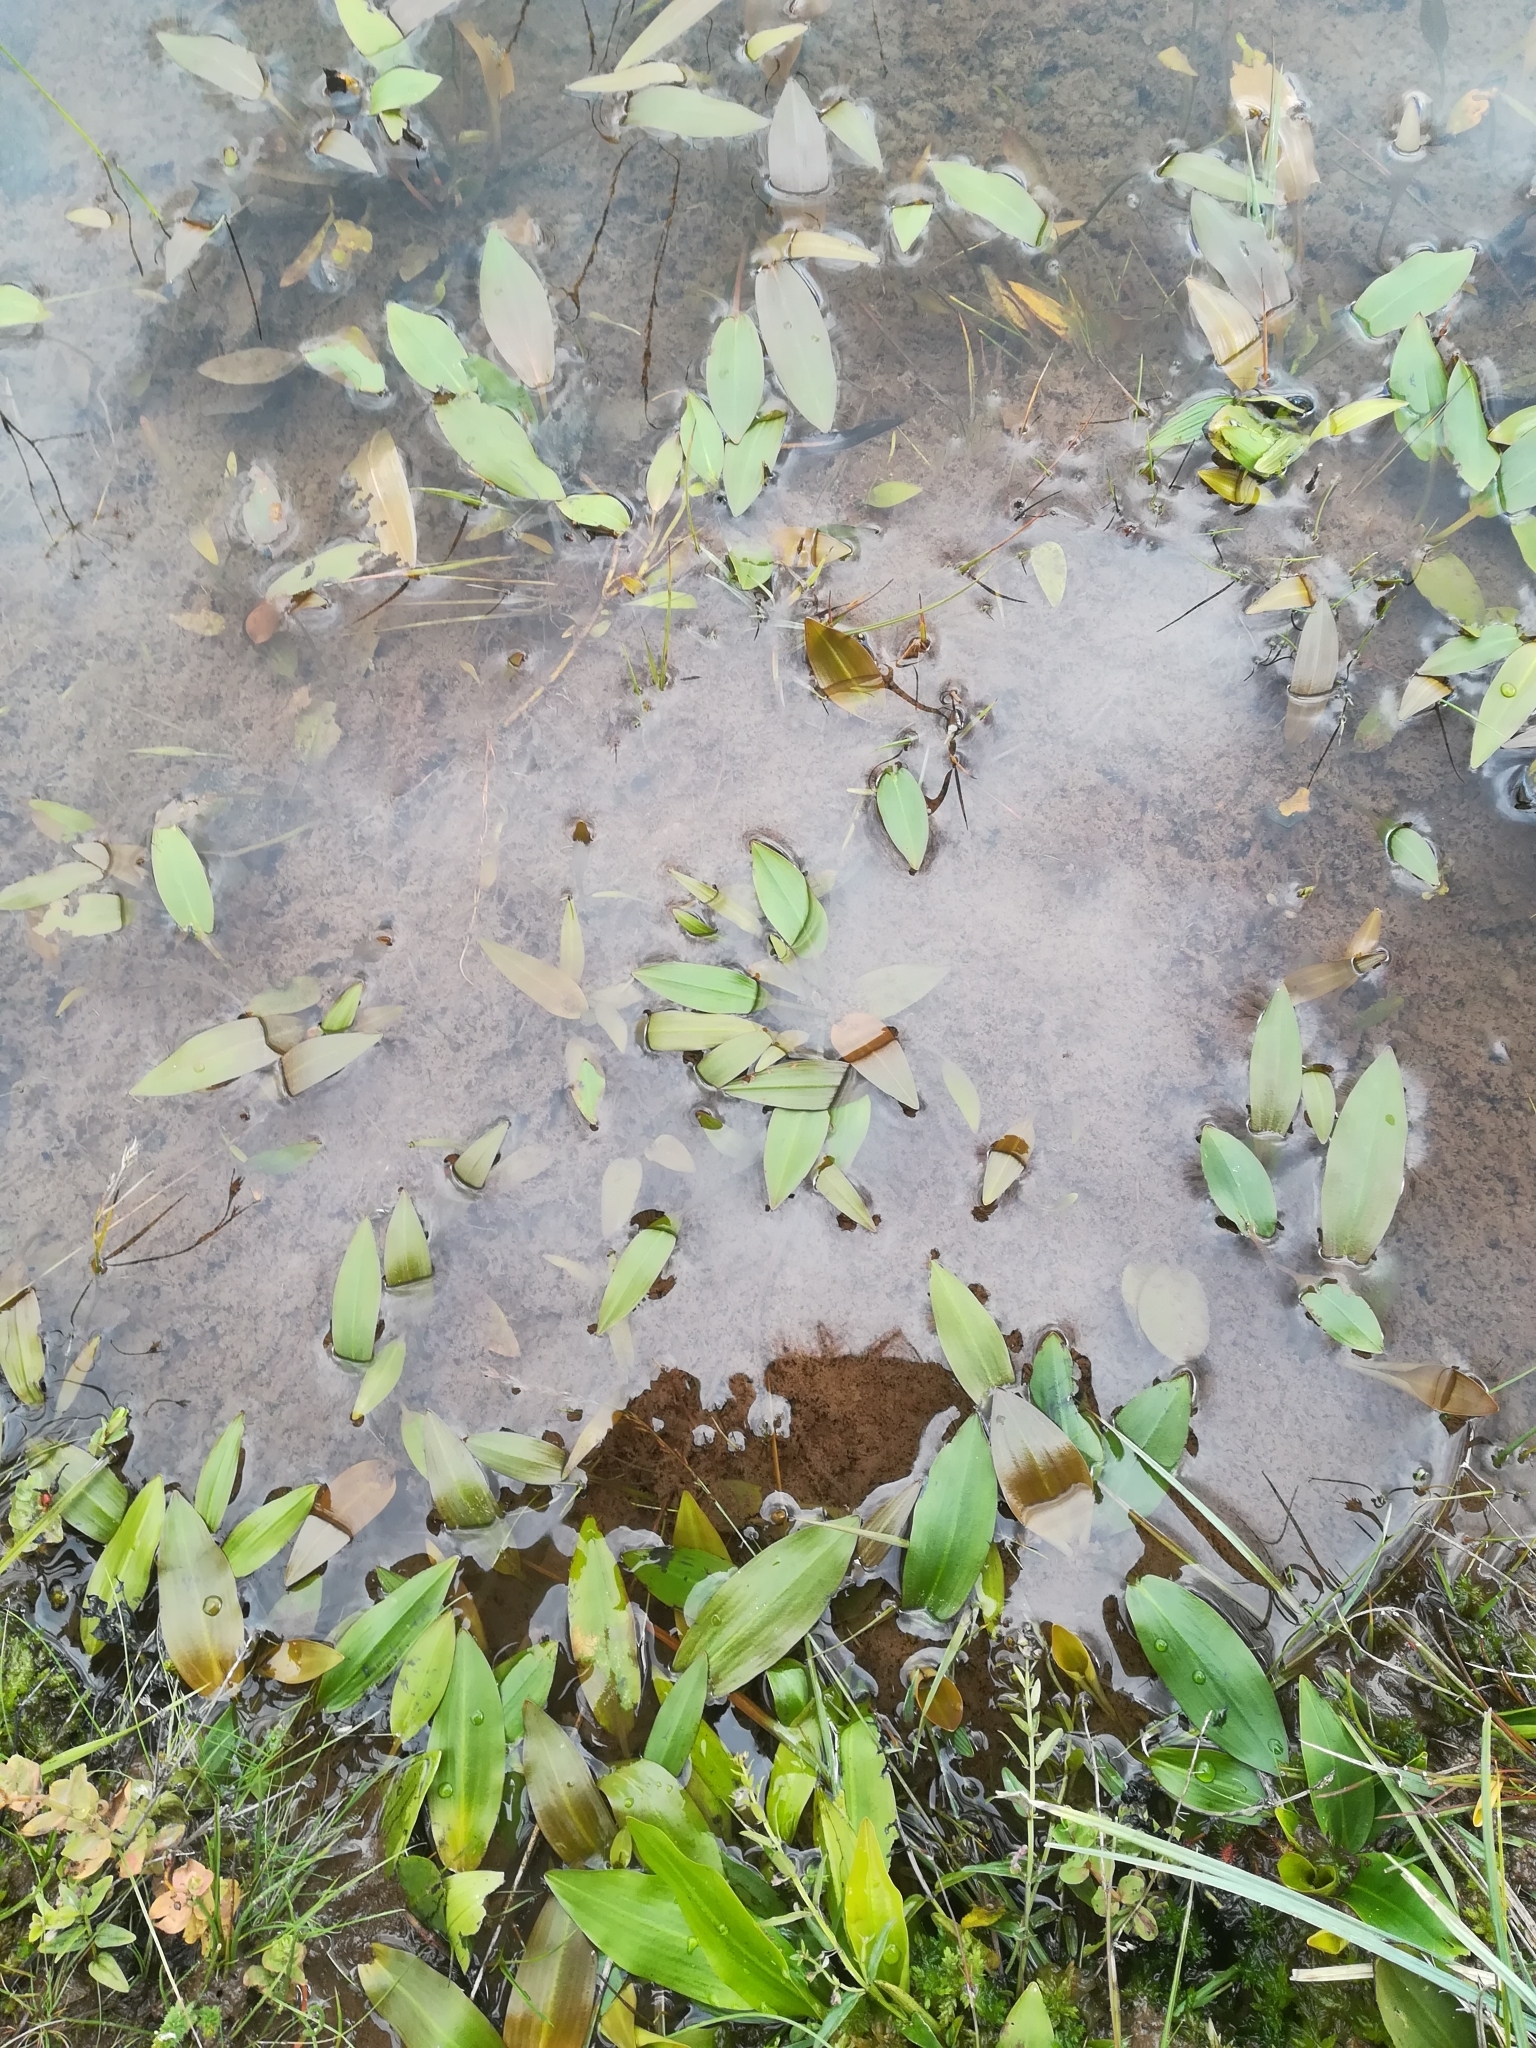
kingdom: Plantae
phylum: Tracheophyta
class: Liliopsida
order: Alismatales
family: Potamogetonaceae
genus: Potamogeton
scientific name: Potamogeton
